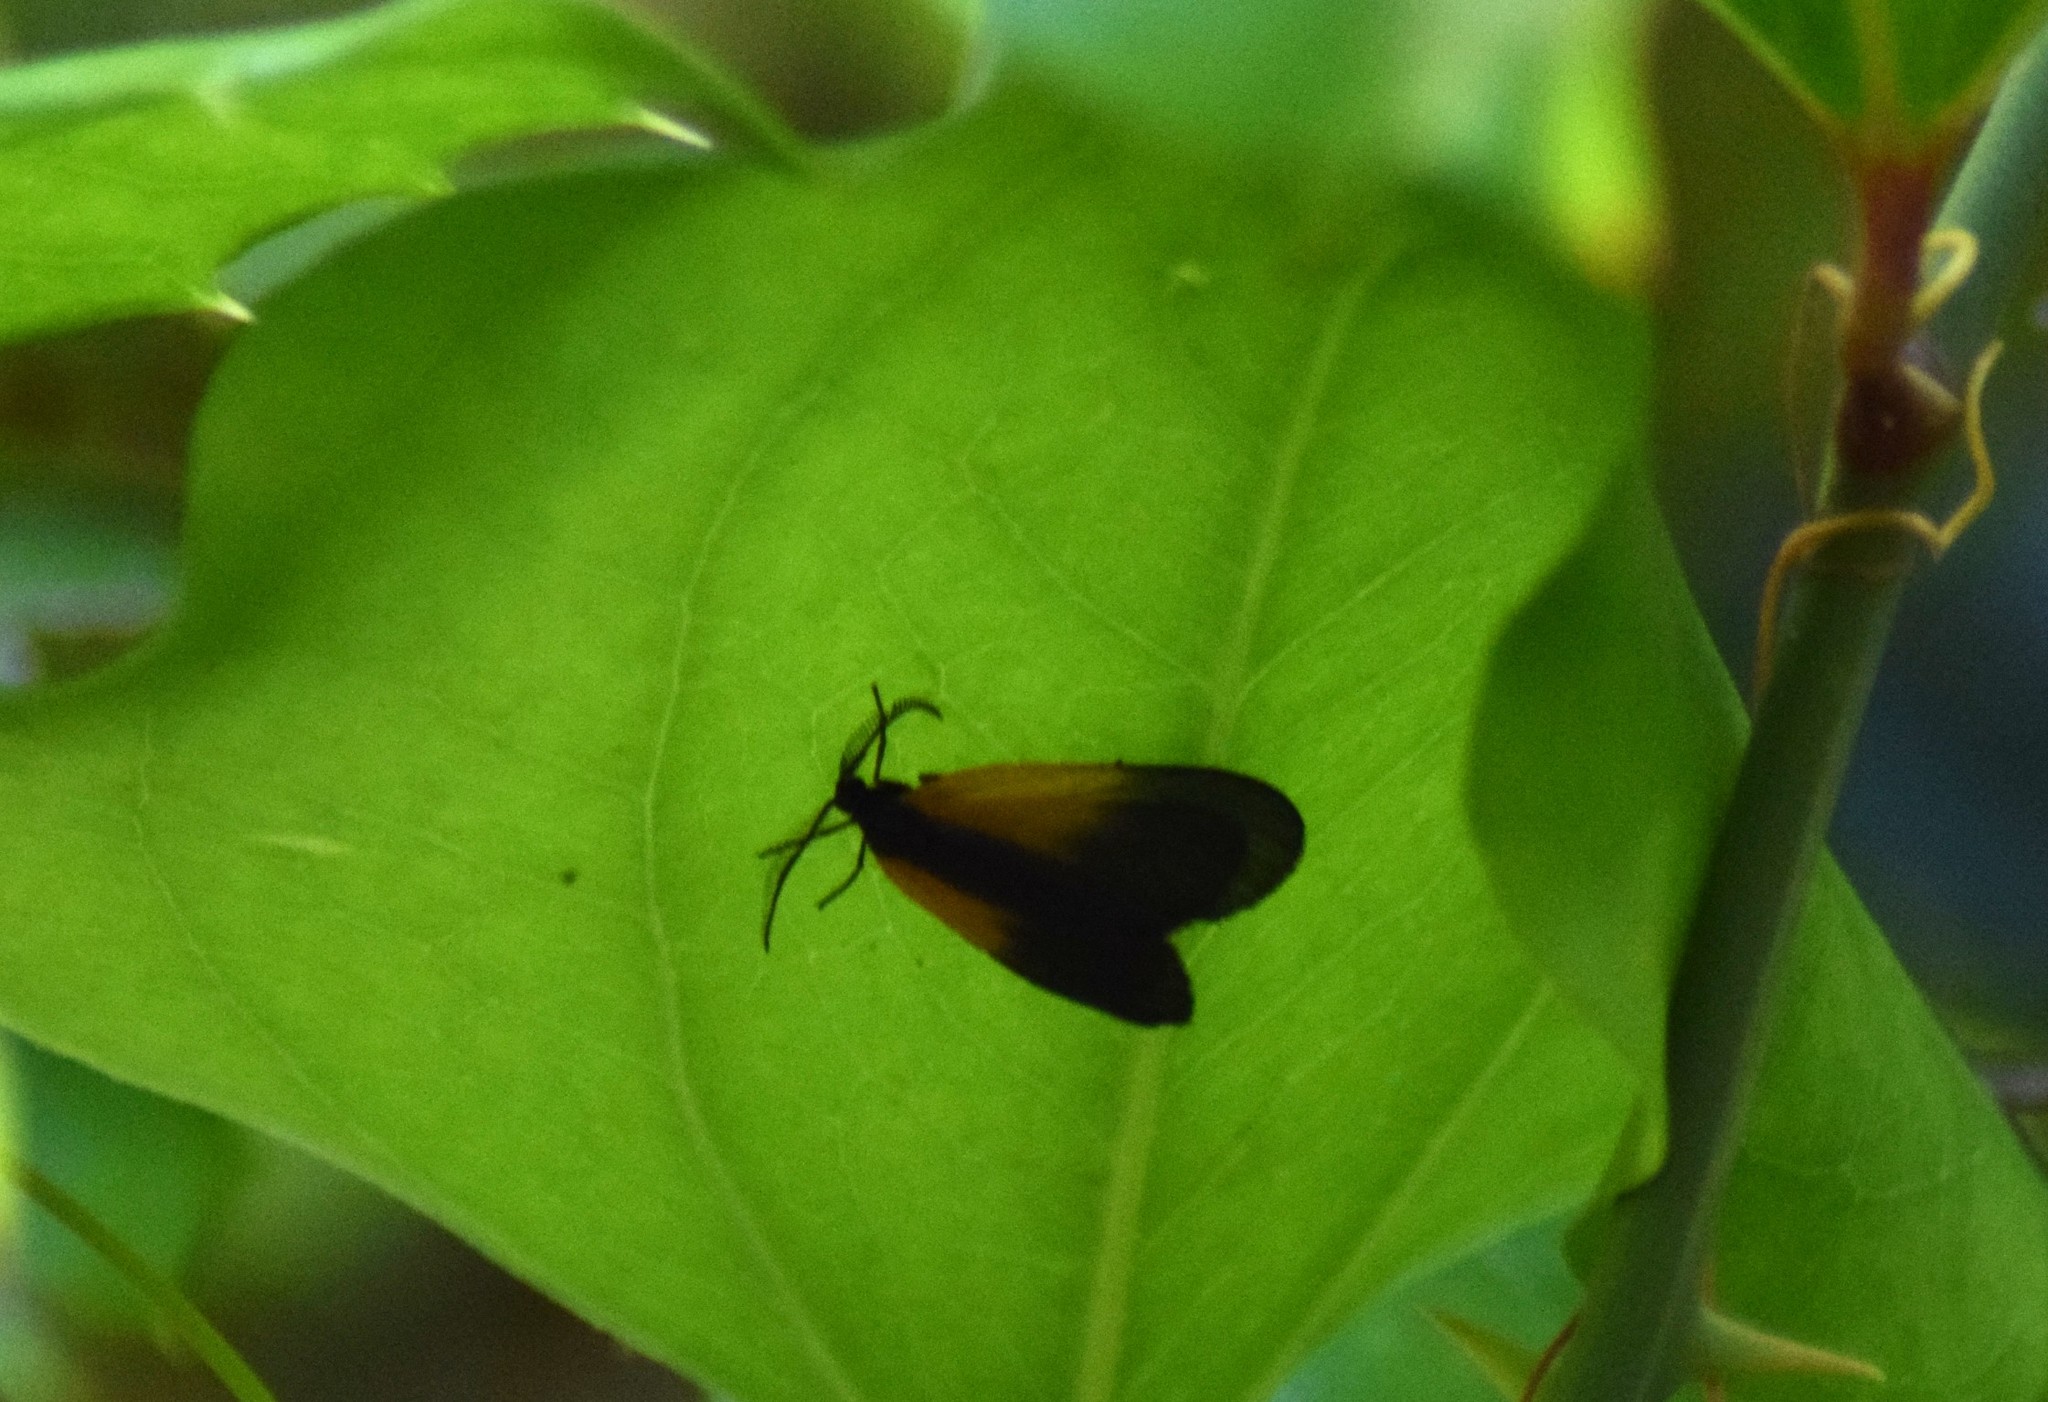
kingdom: Animalia
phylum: Arthropoda
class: Insecta
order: Lepidoptera
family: Zygaenidae
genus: Malthaca
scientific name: Malthaca dimidiata
